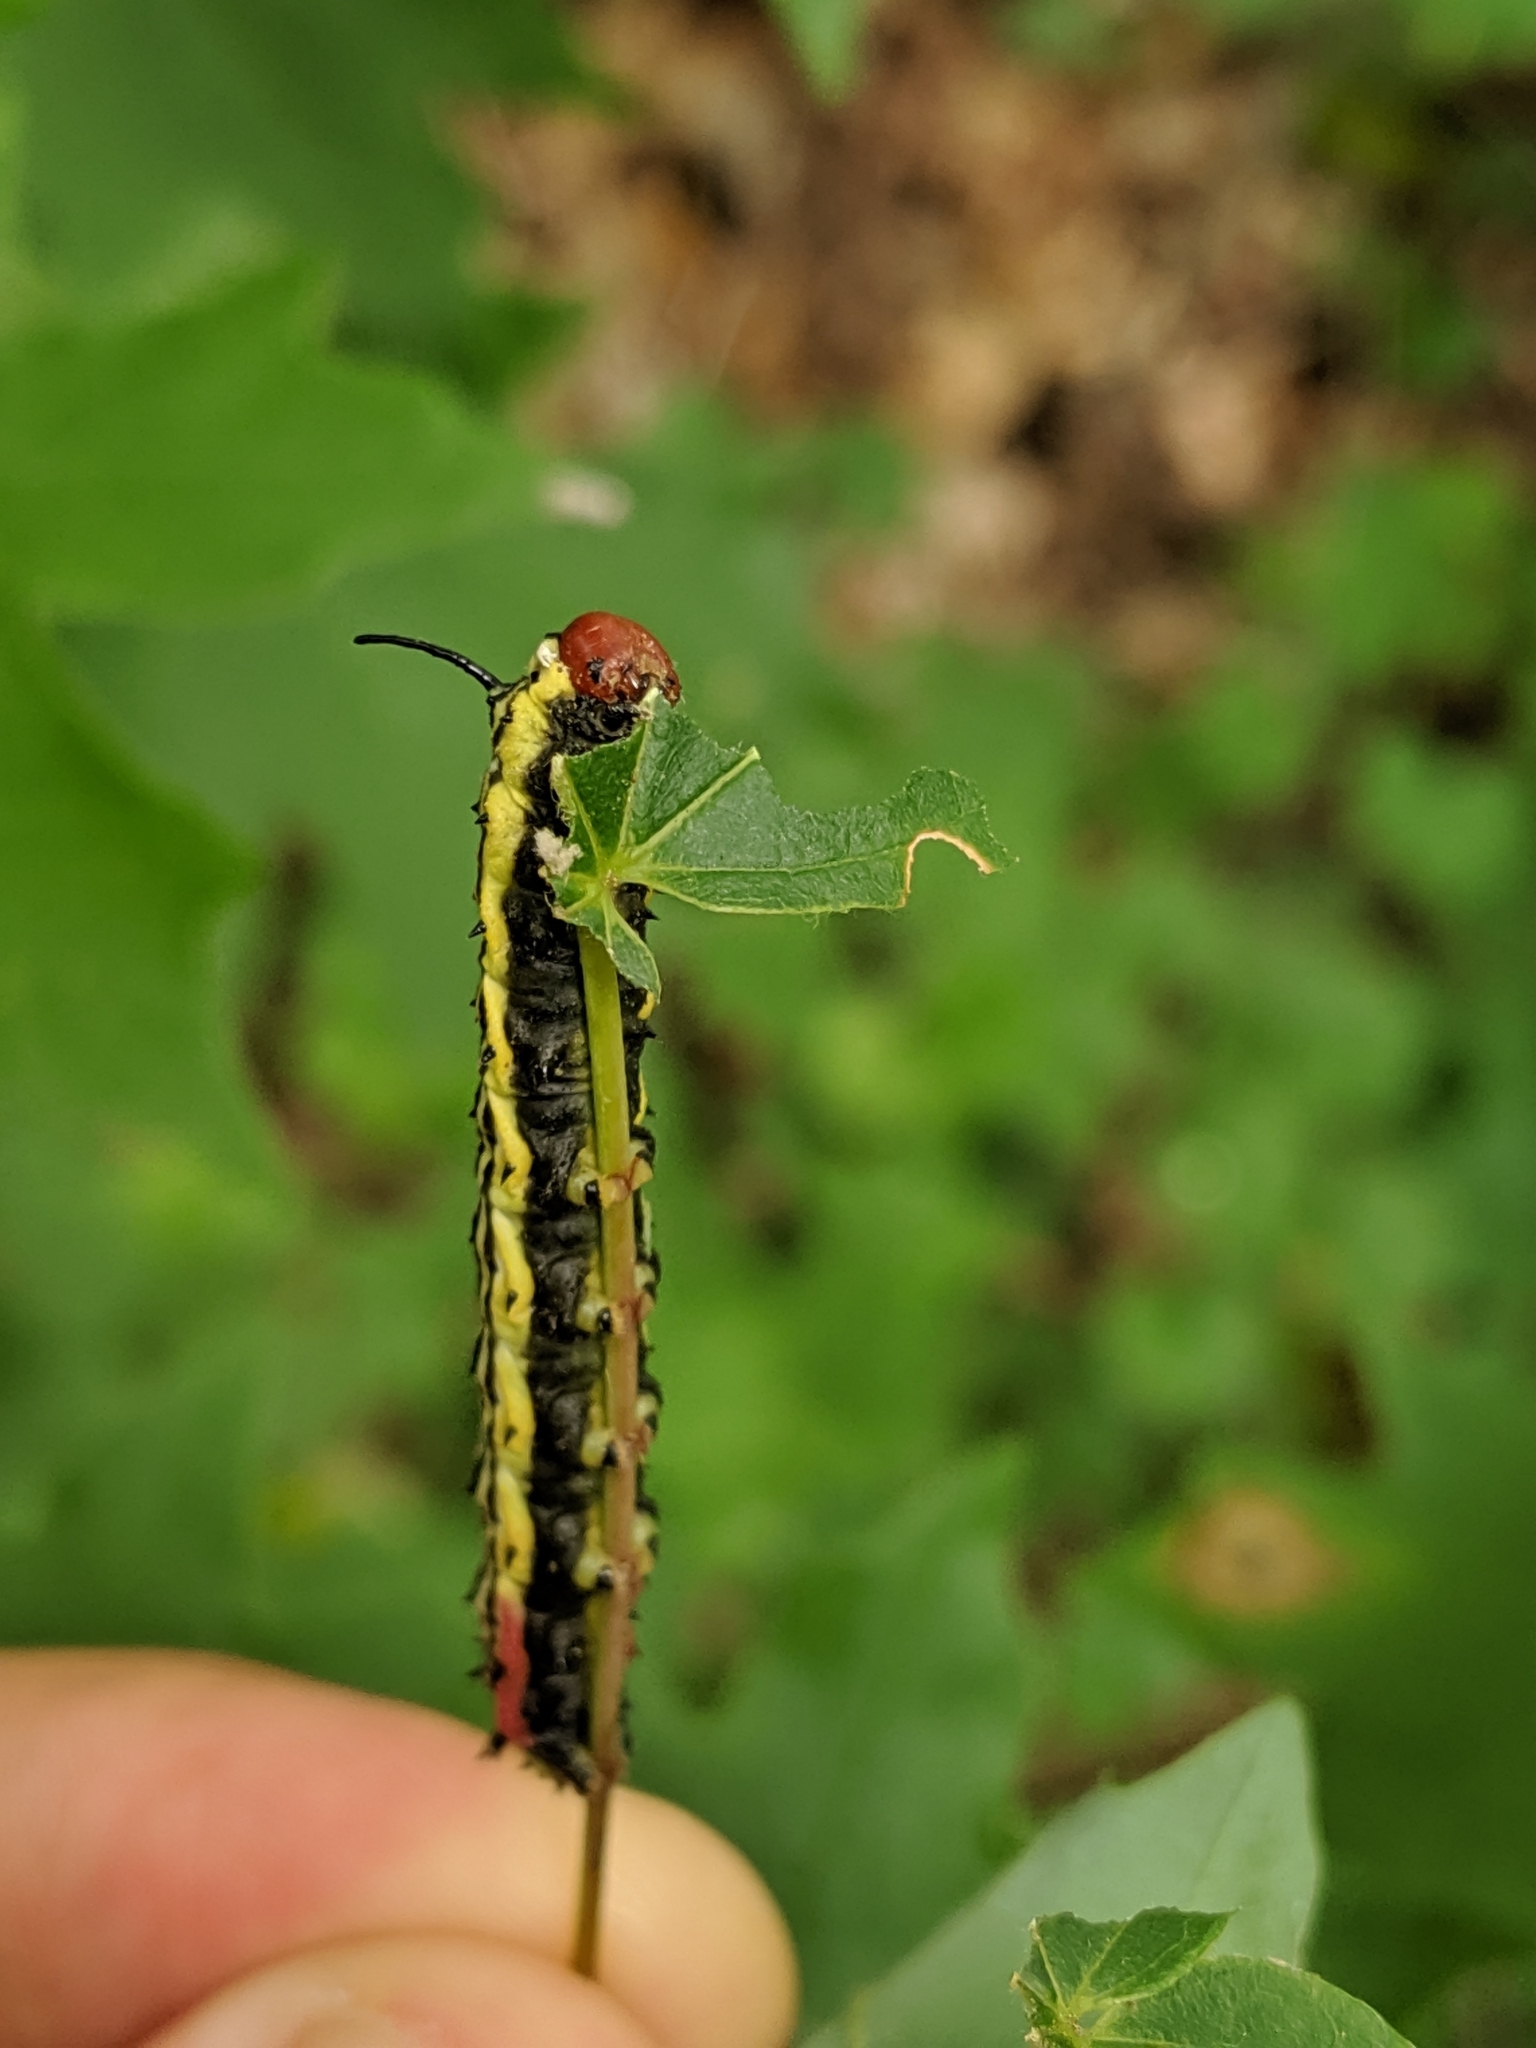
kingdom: Animalia
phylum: Arthropoda
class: Insecta
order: Lepidoptera
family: Saturniidae
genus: Dryocampa
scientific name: Dryocampa rubicunda
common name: Rosy maple moth
